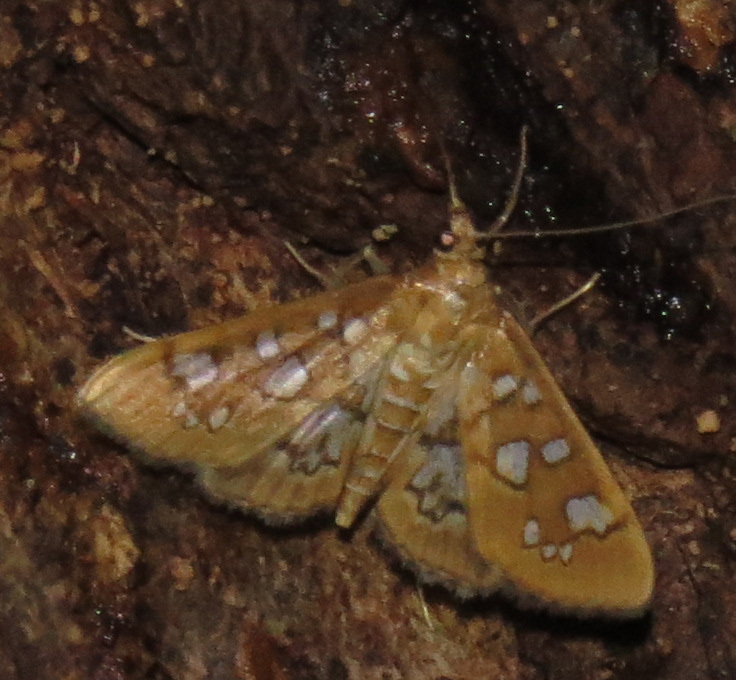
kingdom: Animalia
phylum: Arthropoda
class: Insecta
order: Lepidoptera
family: Crambidae
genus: Samea
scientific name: Samea baccatalis
